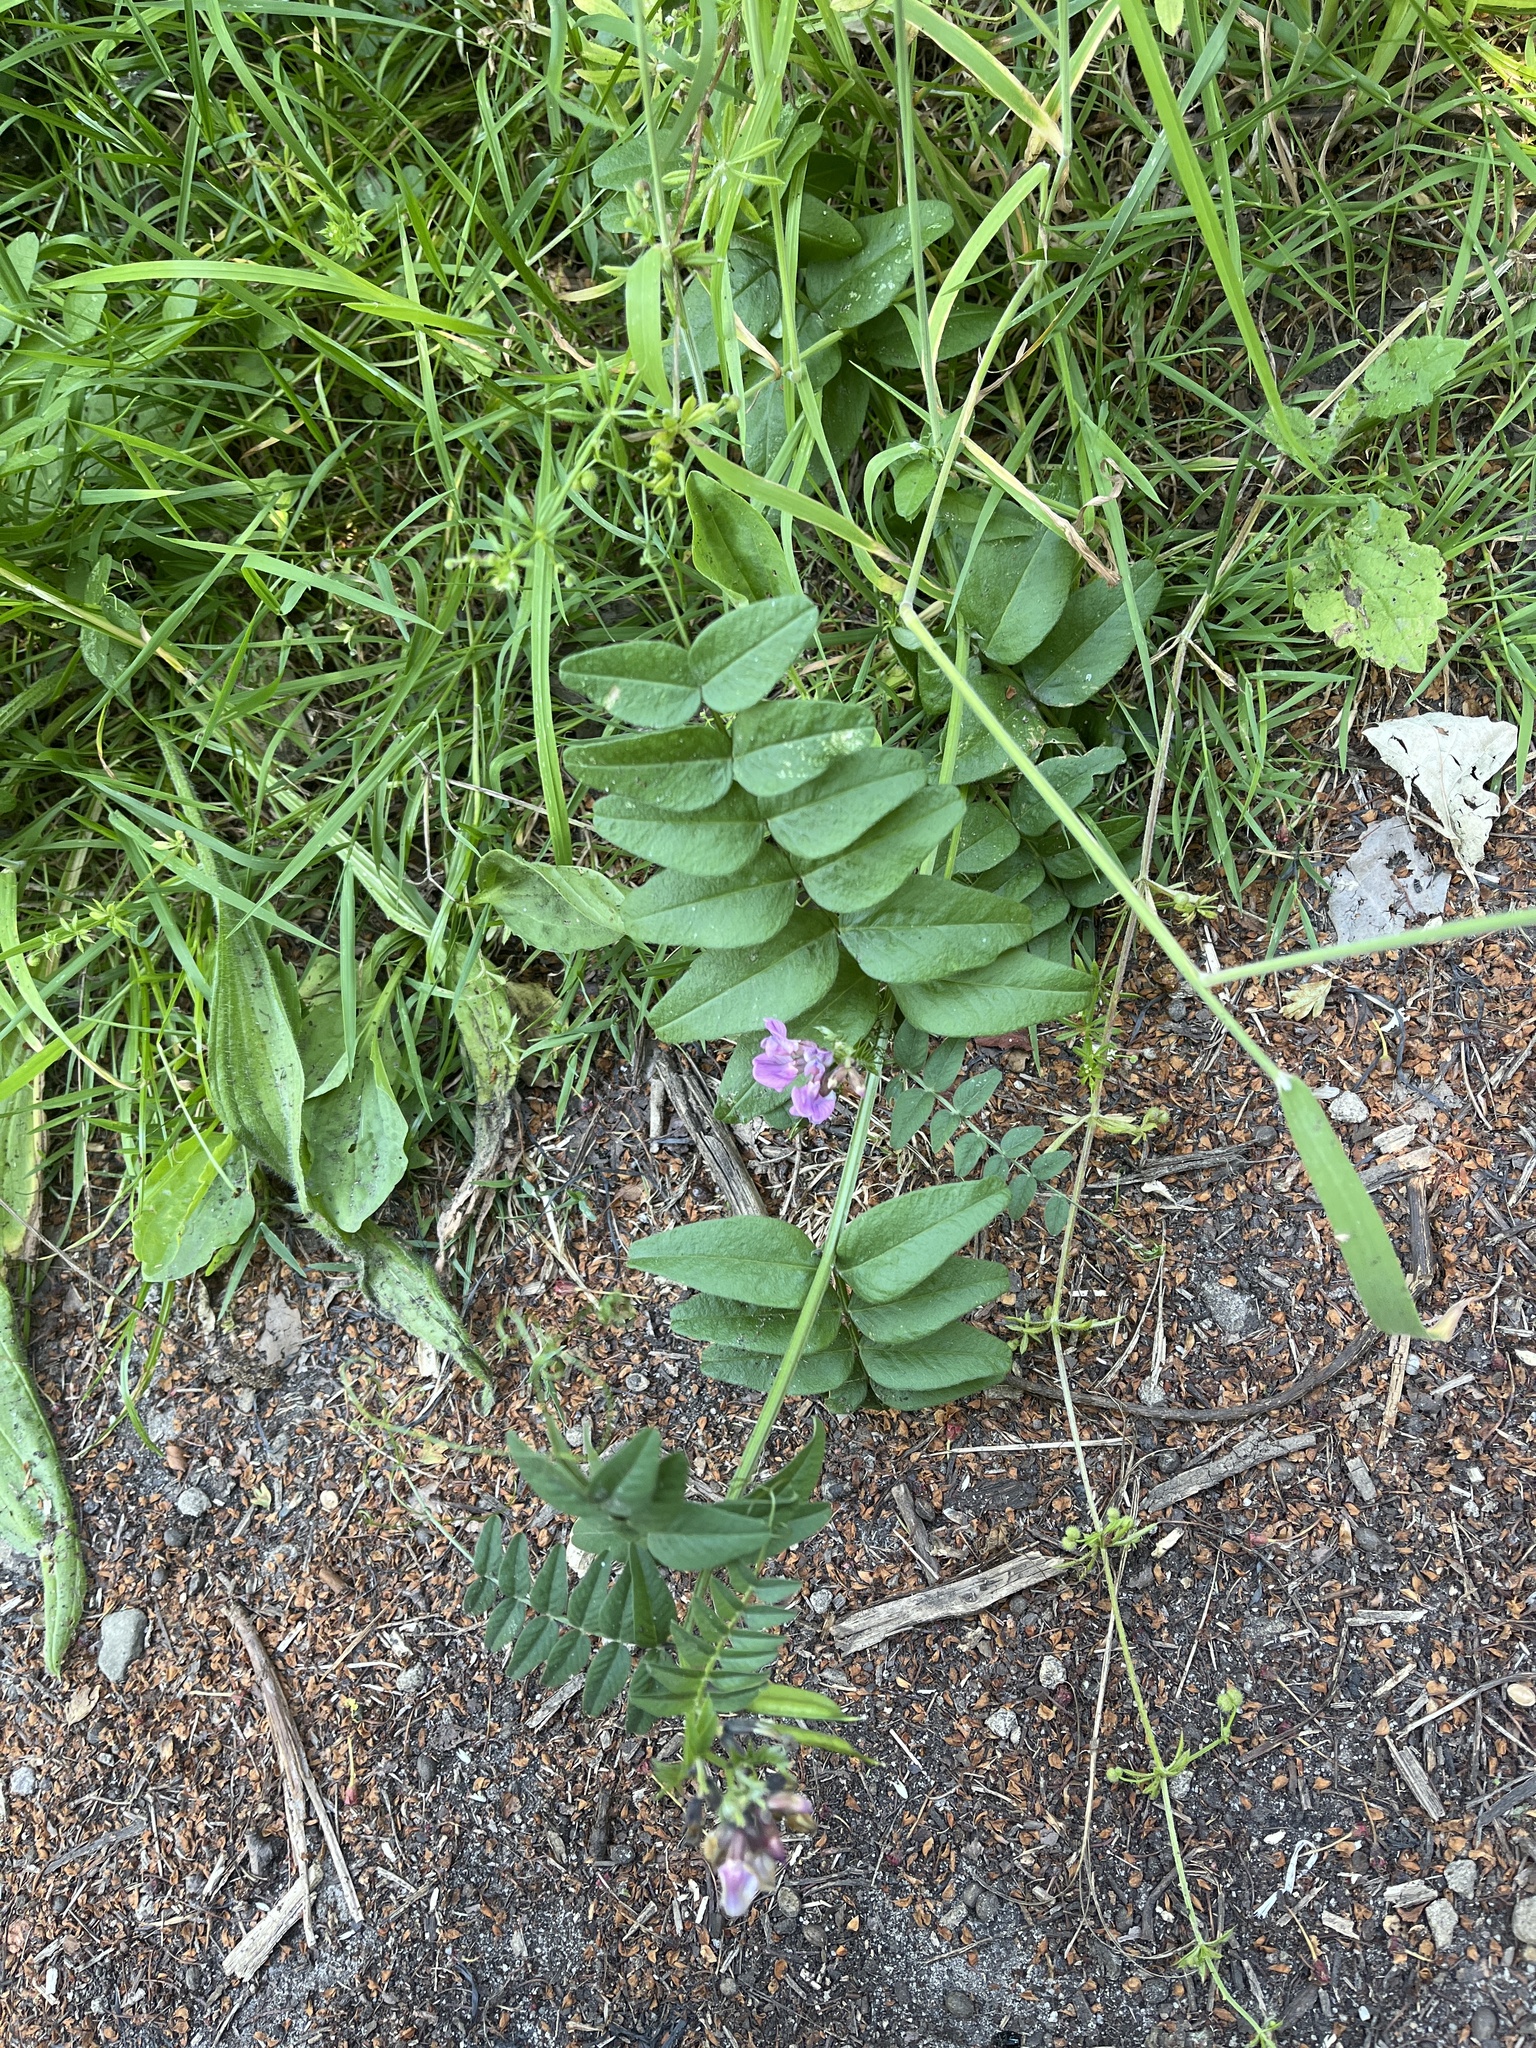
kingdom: Plantae
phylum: Tracheophyta
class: Magnoliopsida
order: Fabales
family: Fabaceae
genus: Vicia
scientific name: Vicia sepium
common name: Bush vetch
